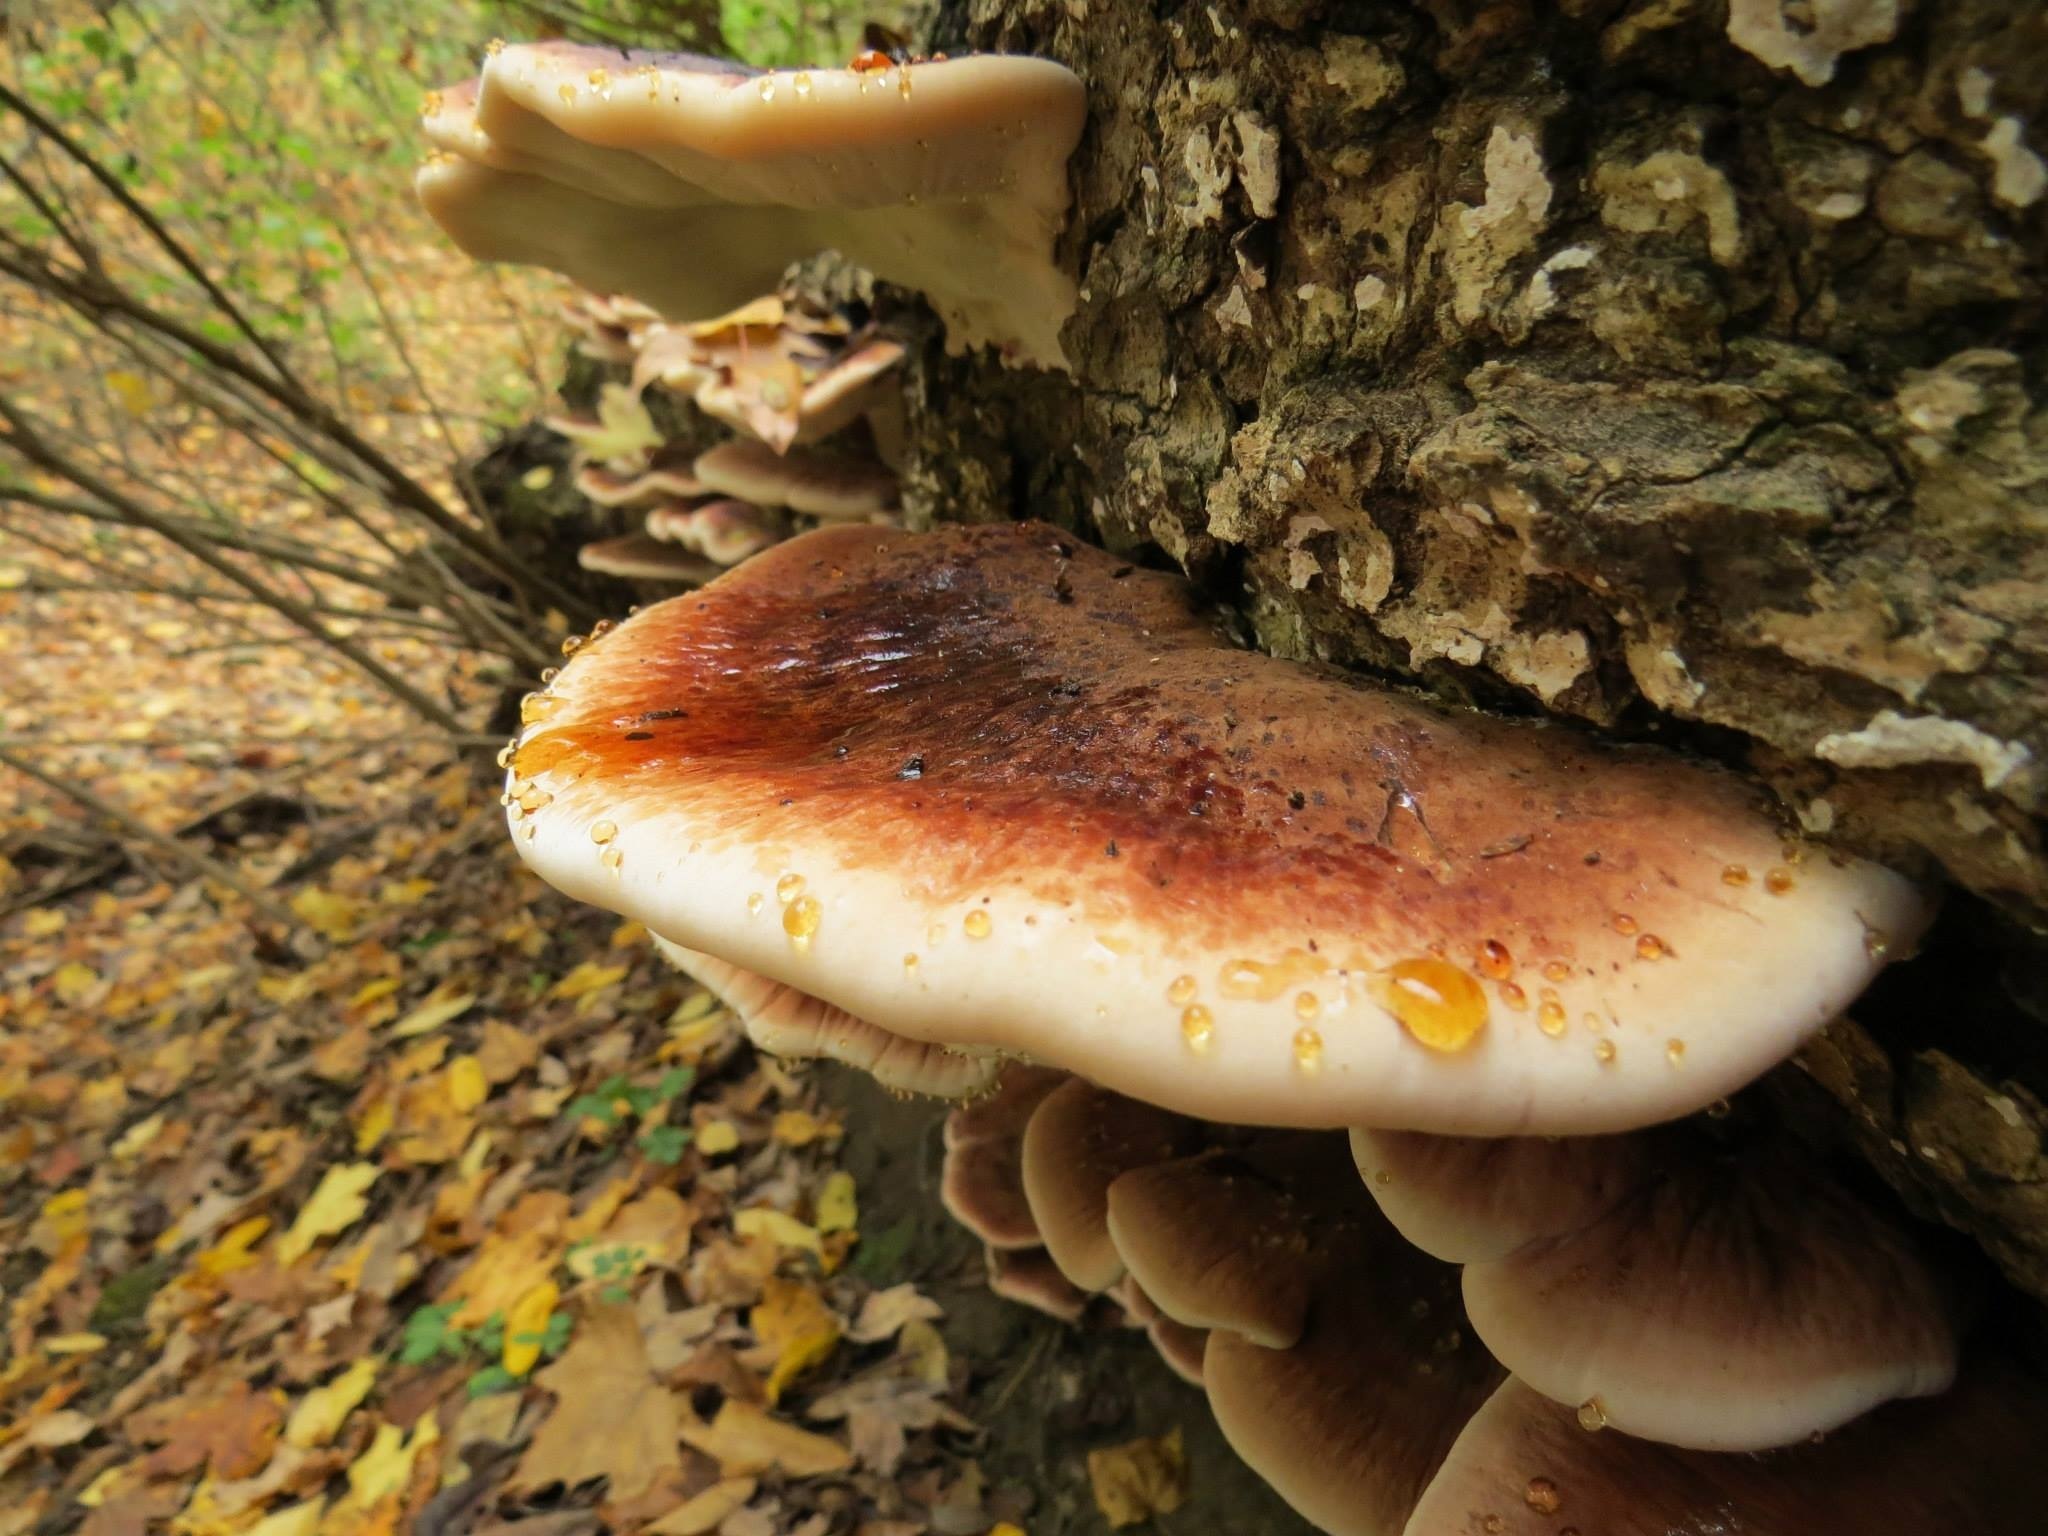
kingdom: Fungi
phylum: Basidiomycota
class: Agaricomycetes
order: Polyporales
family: Ischnodermataceae
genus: Ischnoderma
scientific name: Ischnoderma resinosum
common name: Resinous polypore
